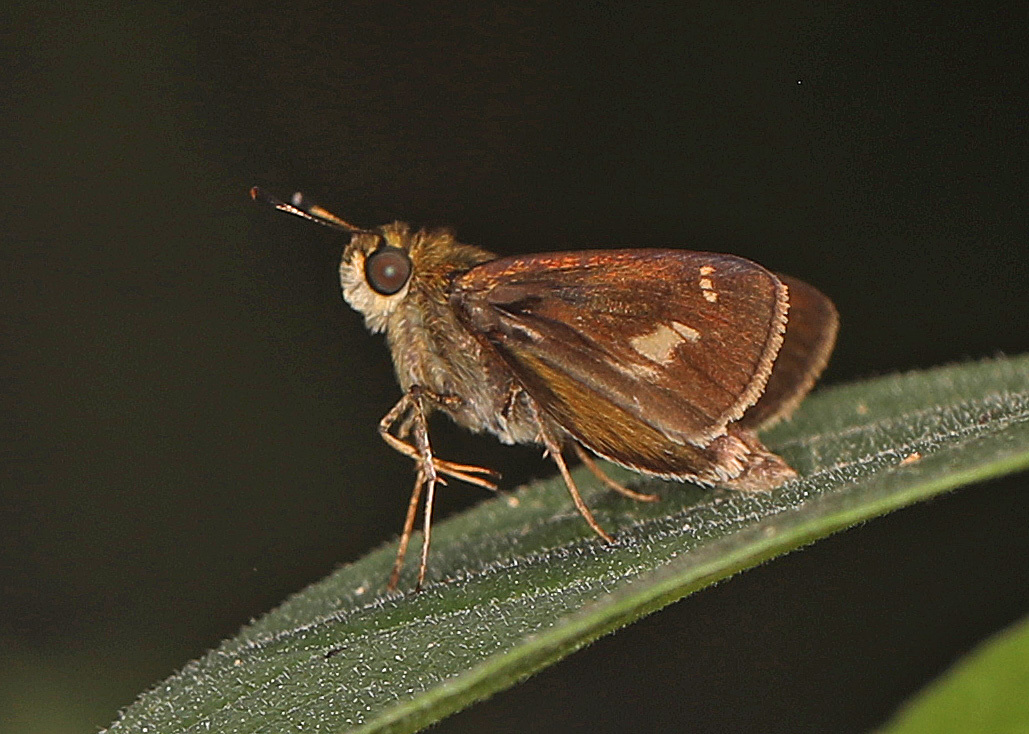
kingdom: Animalia
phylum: Arthropoda
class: Insecta
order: Lepidoptera
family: Hesperiidae
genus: Vernia
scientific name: Vernia verna
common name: Little glassywing
